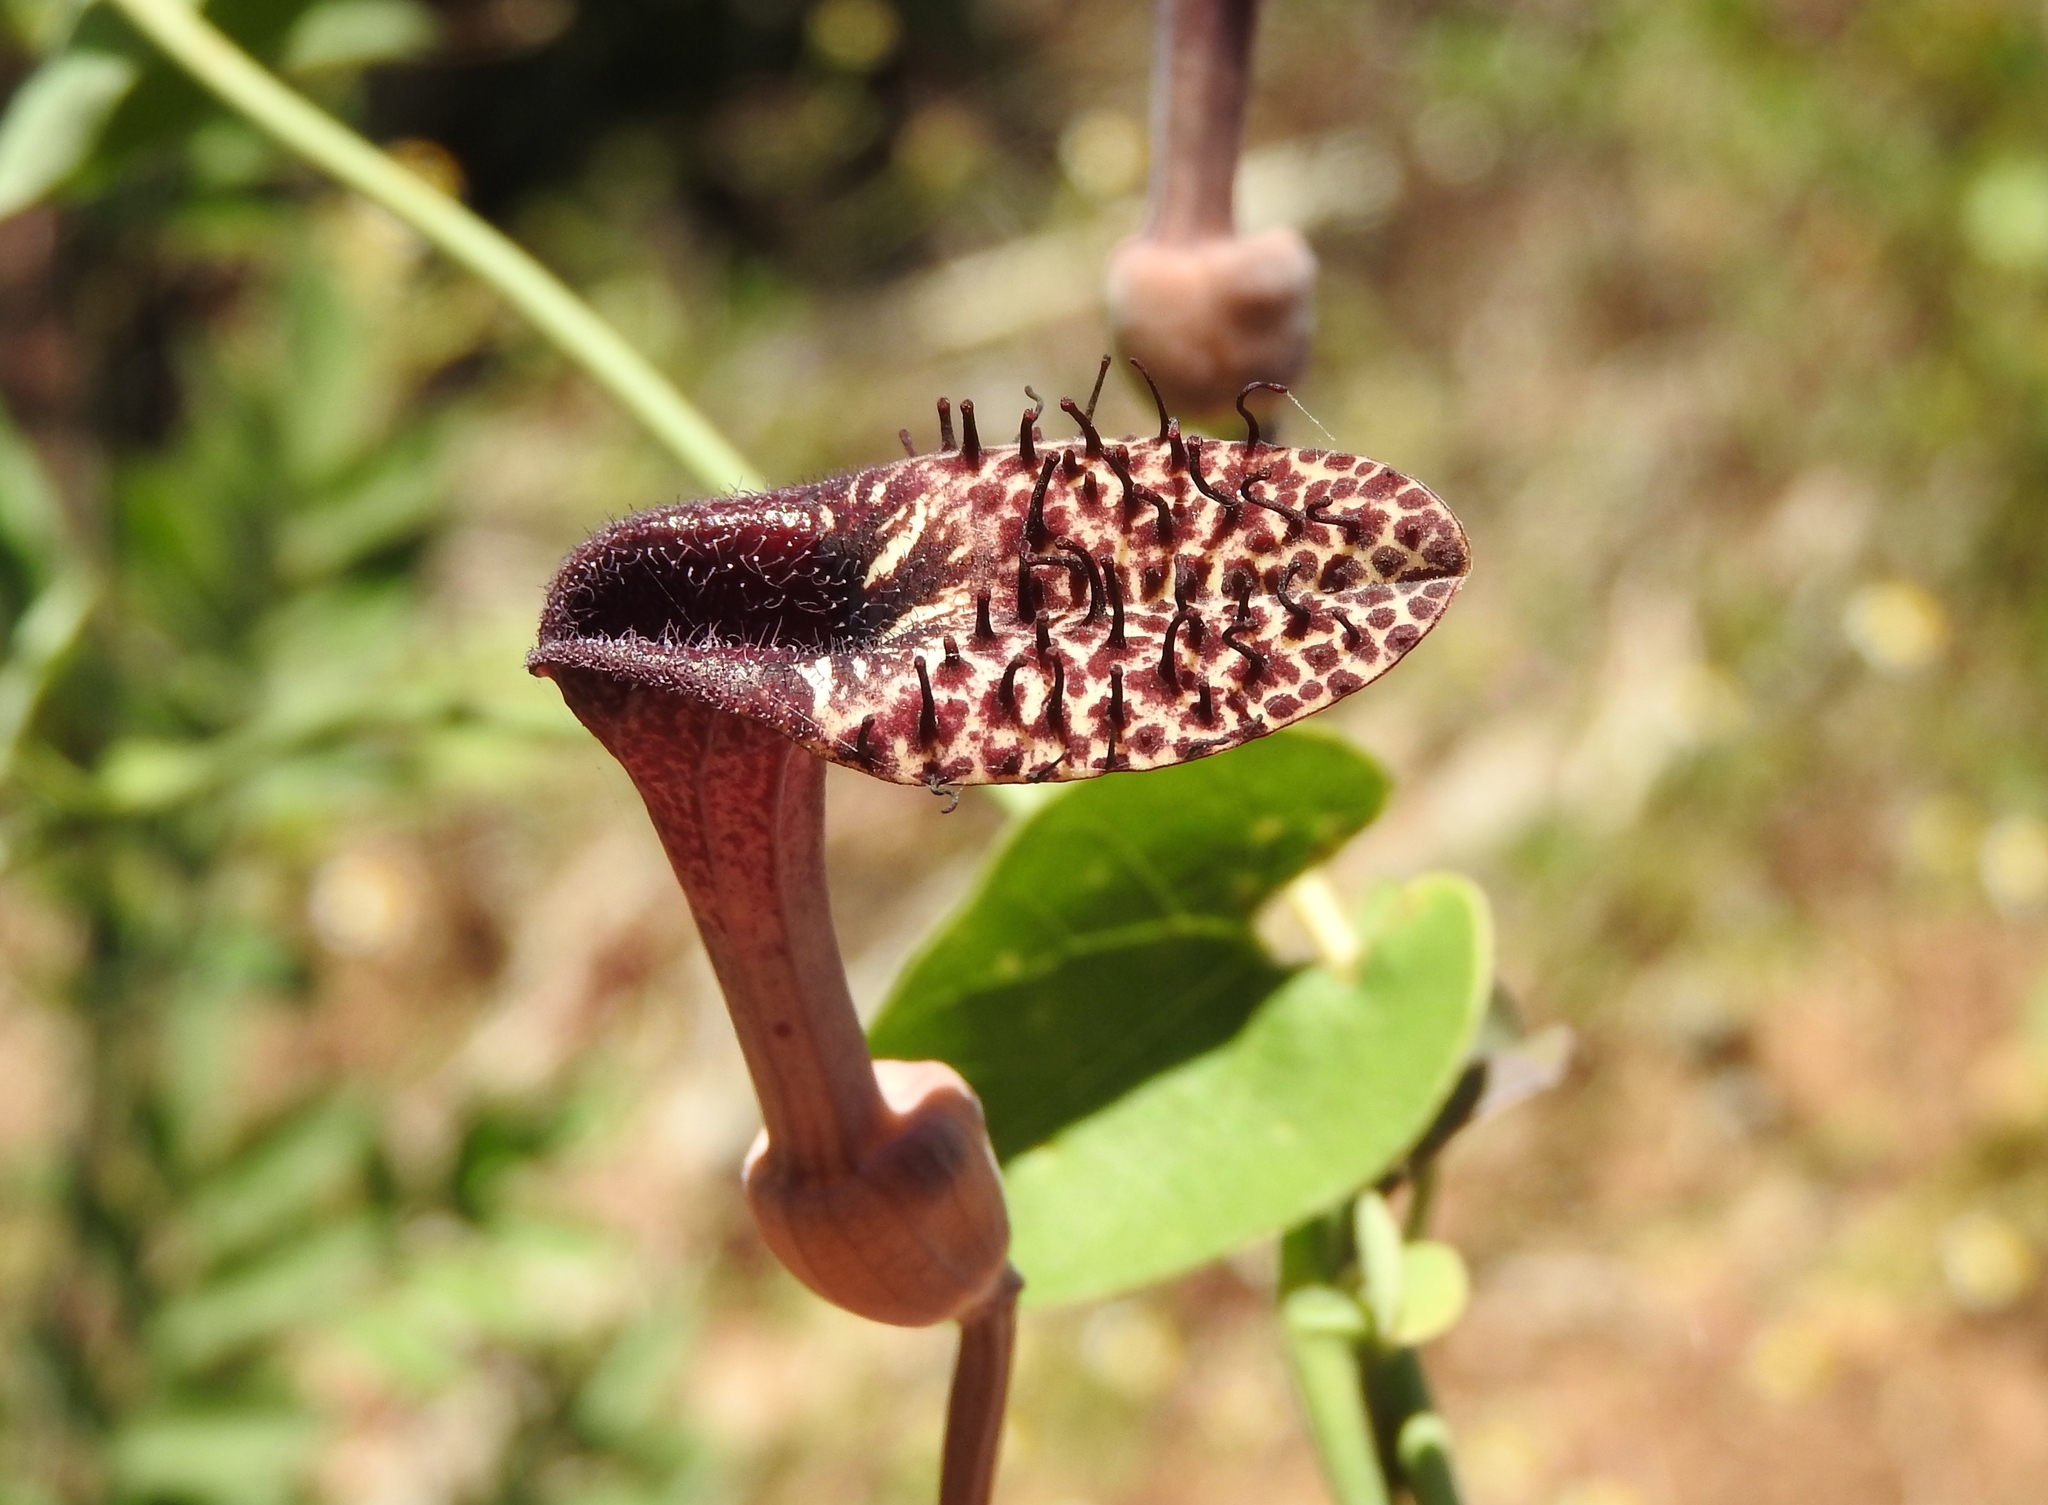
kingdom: Plantae
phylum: Tracheophyta
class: Magnoliopsida
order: Piperales
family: Aristolochiaceae
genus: Aristolochia
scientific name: Aristolochia taliscana
